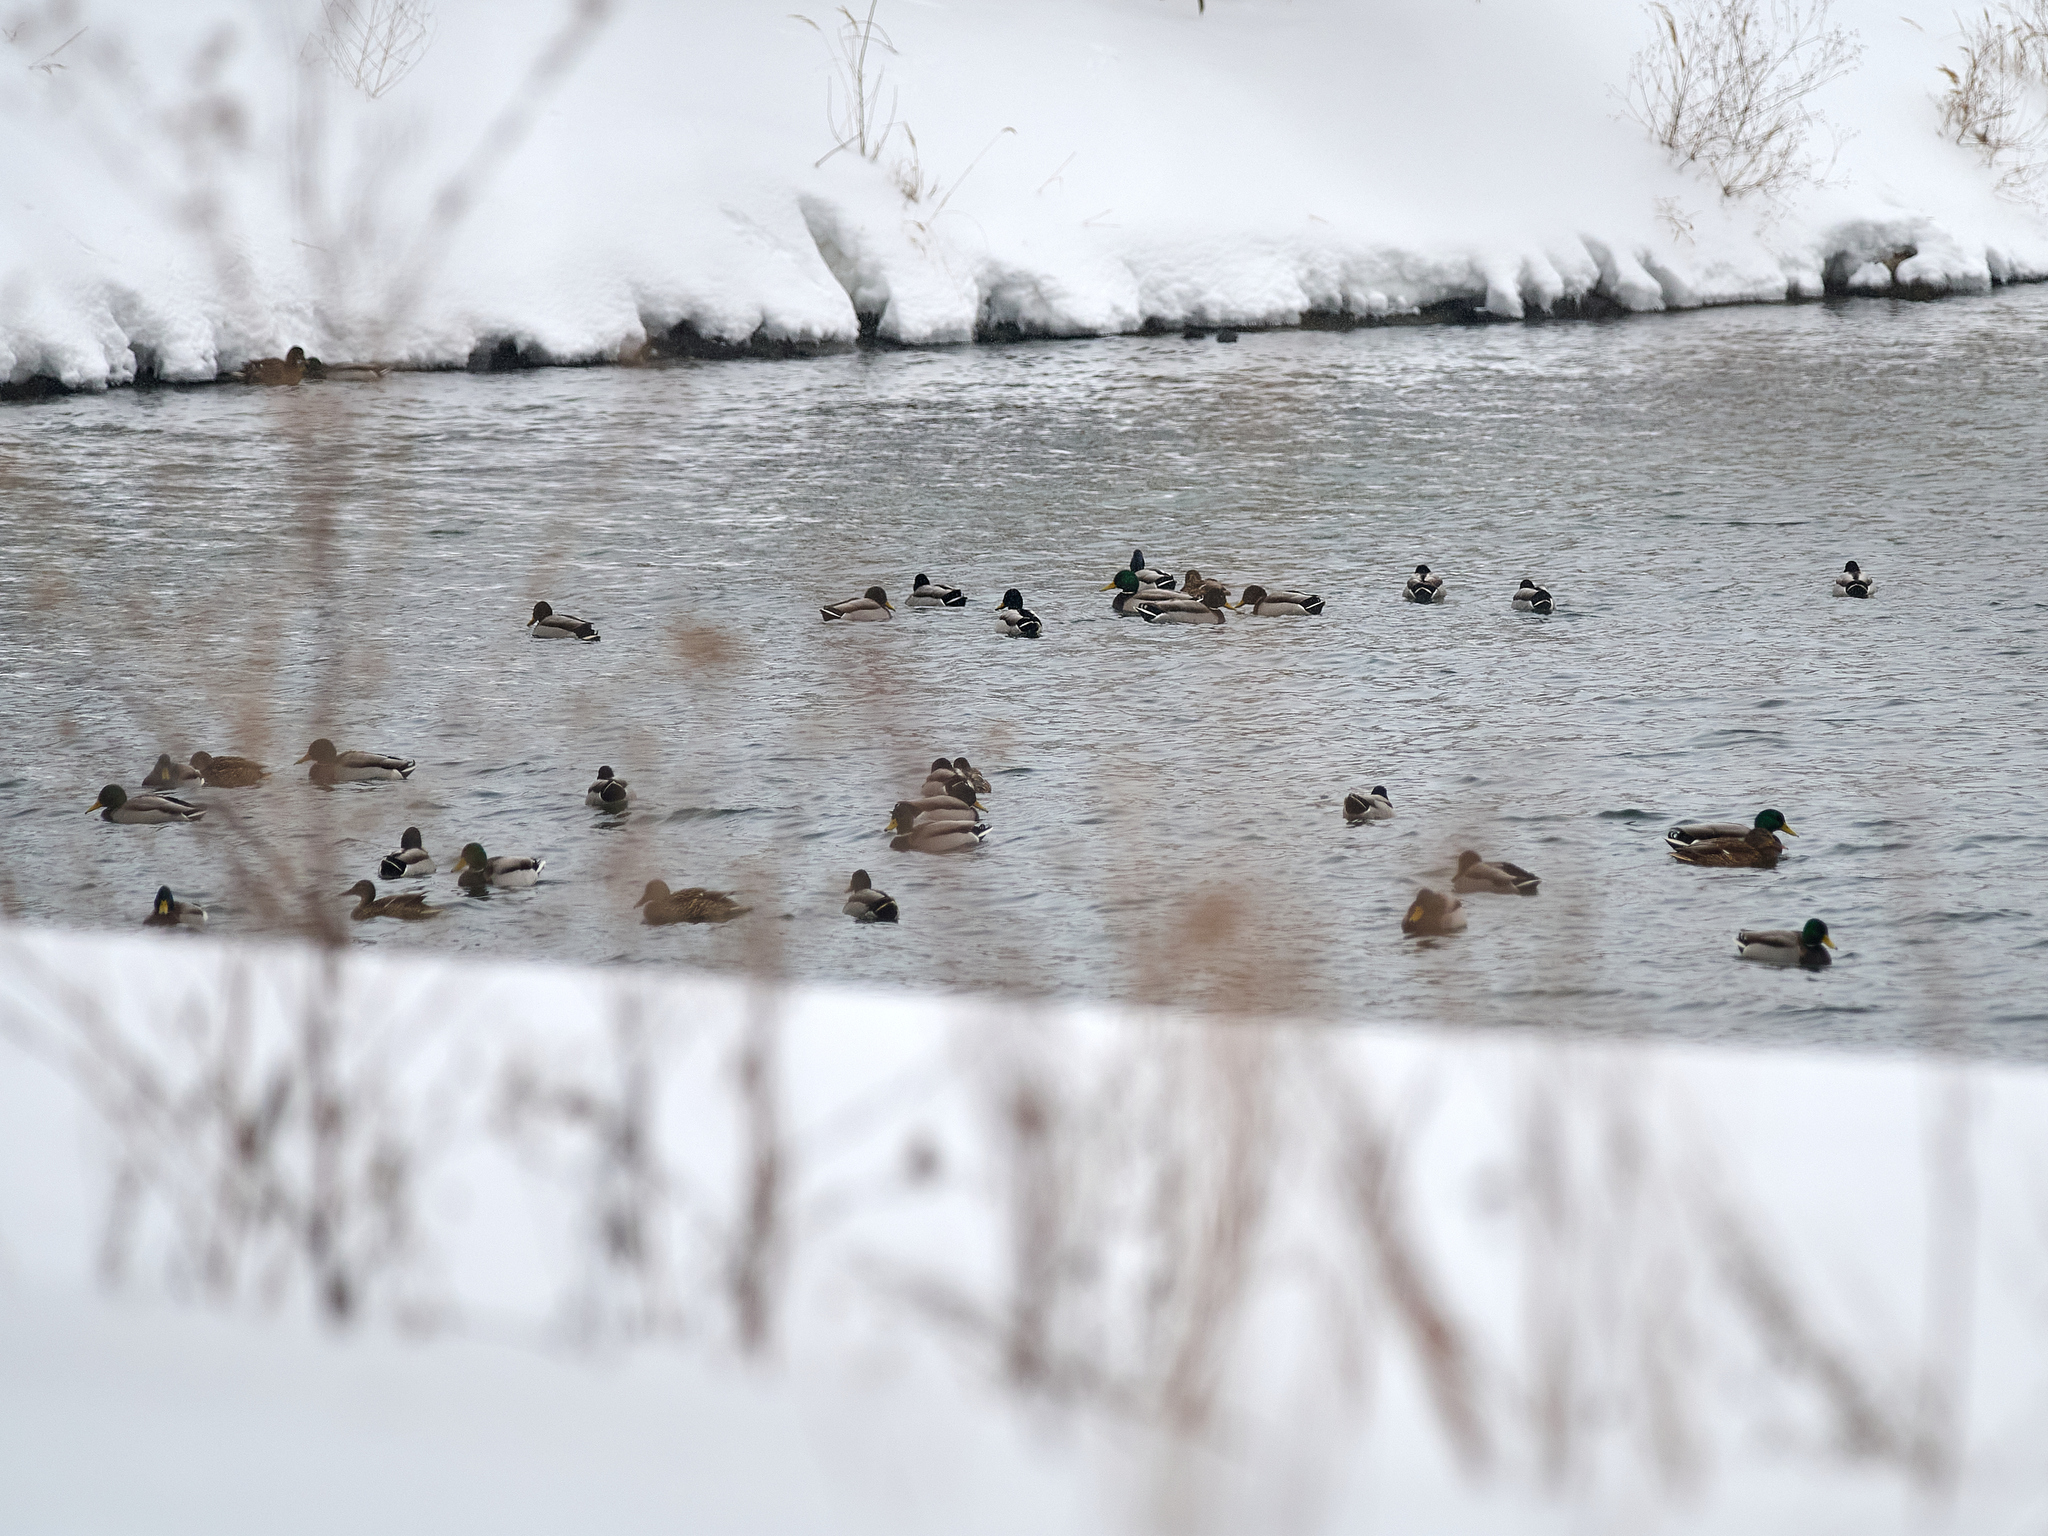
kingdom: Animalia
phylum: Chordata
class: Aves
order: Anseriformes
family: Anatidae
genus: Anas
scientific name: Anas platyrhynchos
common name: Mallard
